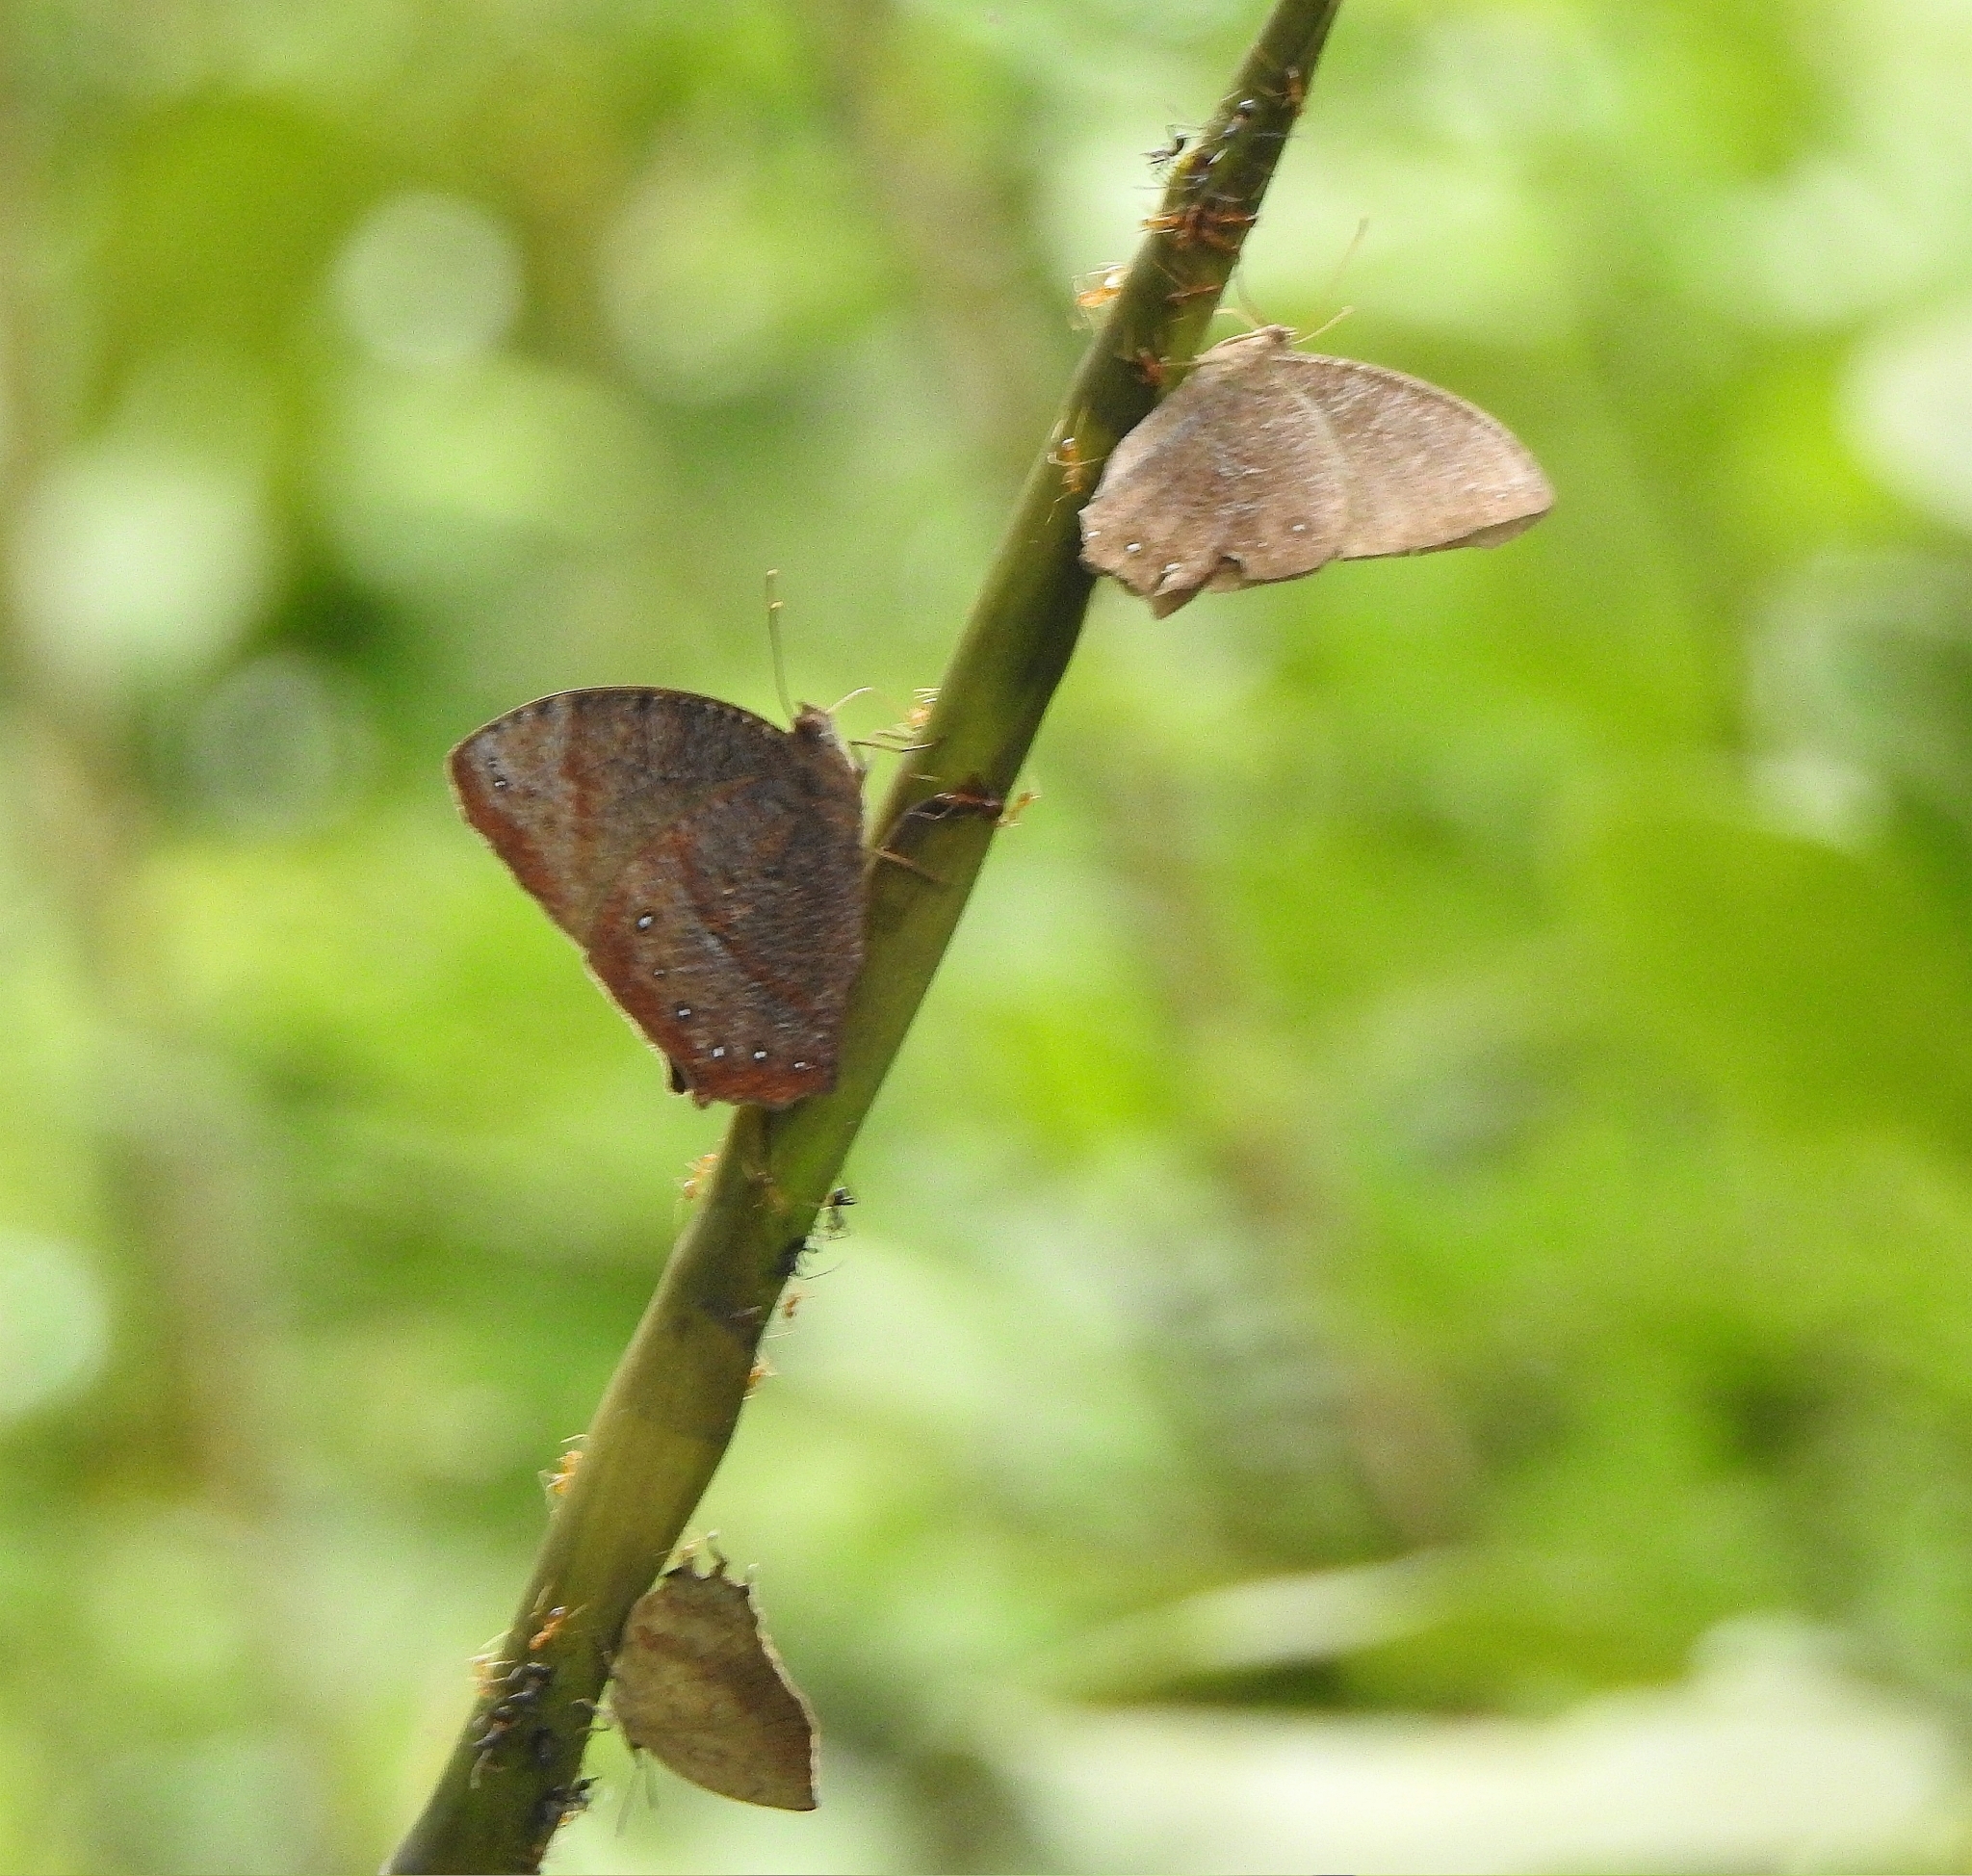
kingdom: Animalia
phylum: Arthropoda
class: Insecta
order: Lepidoptera
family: Nymphalidae
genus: Melanitis
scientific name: Melanitis phedima
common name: Dark evening brown
